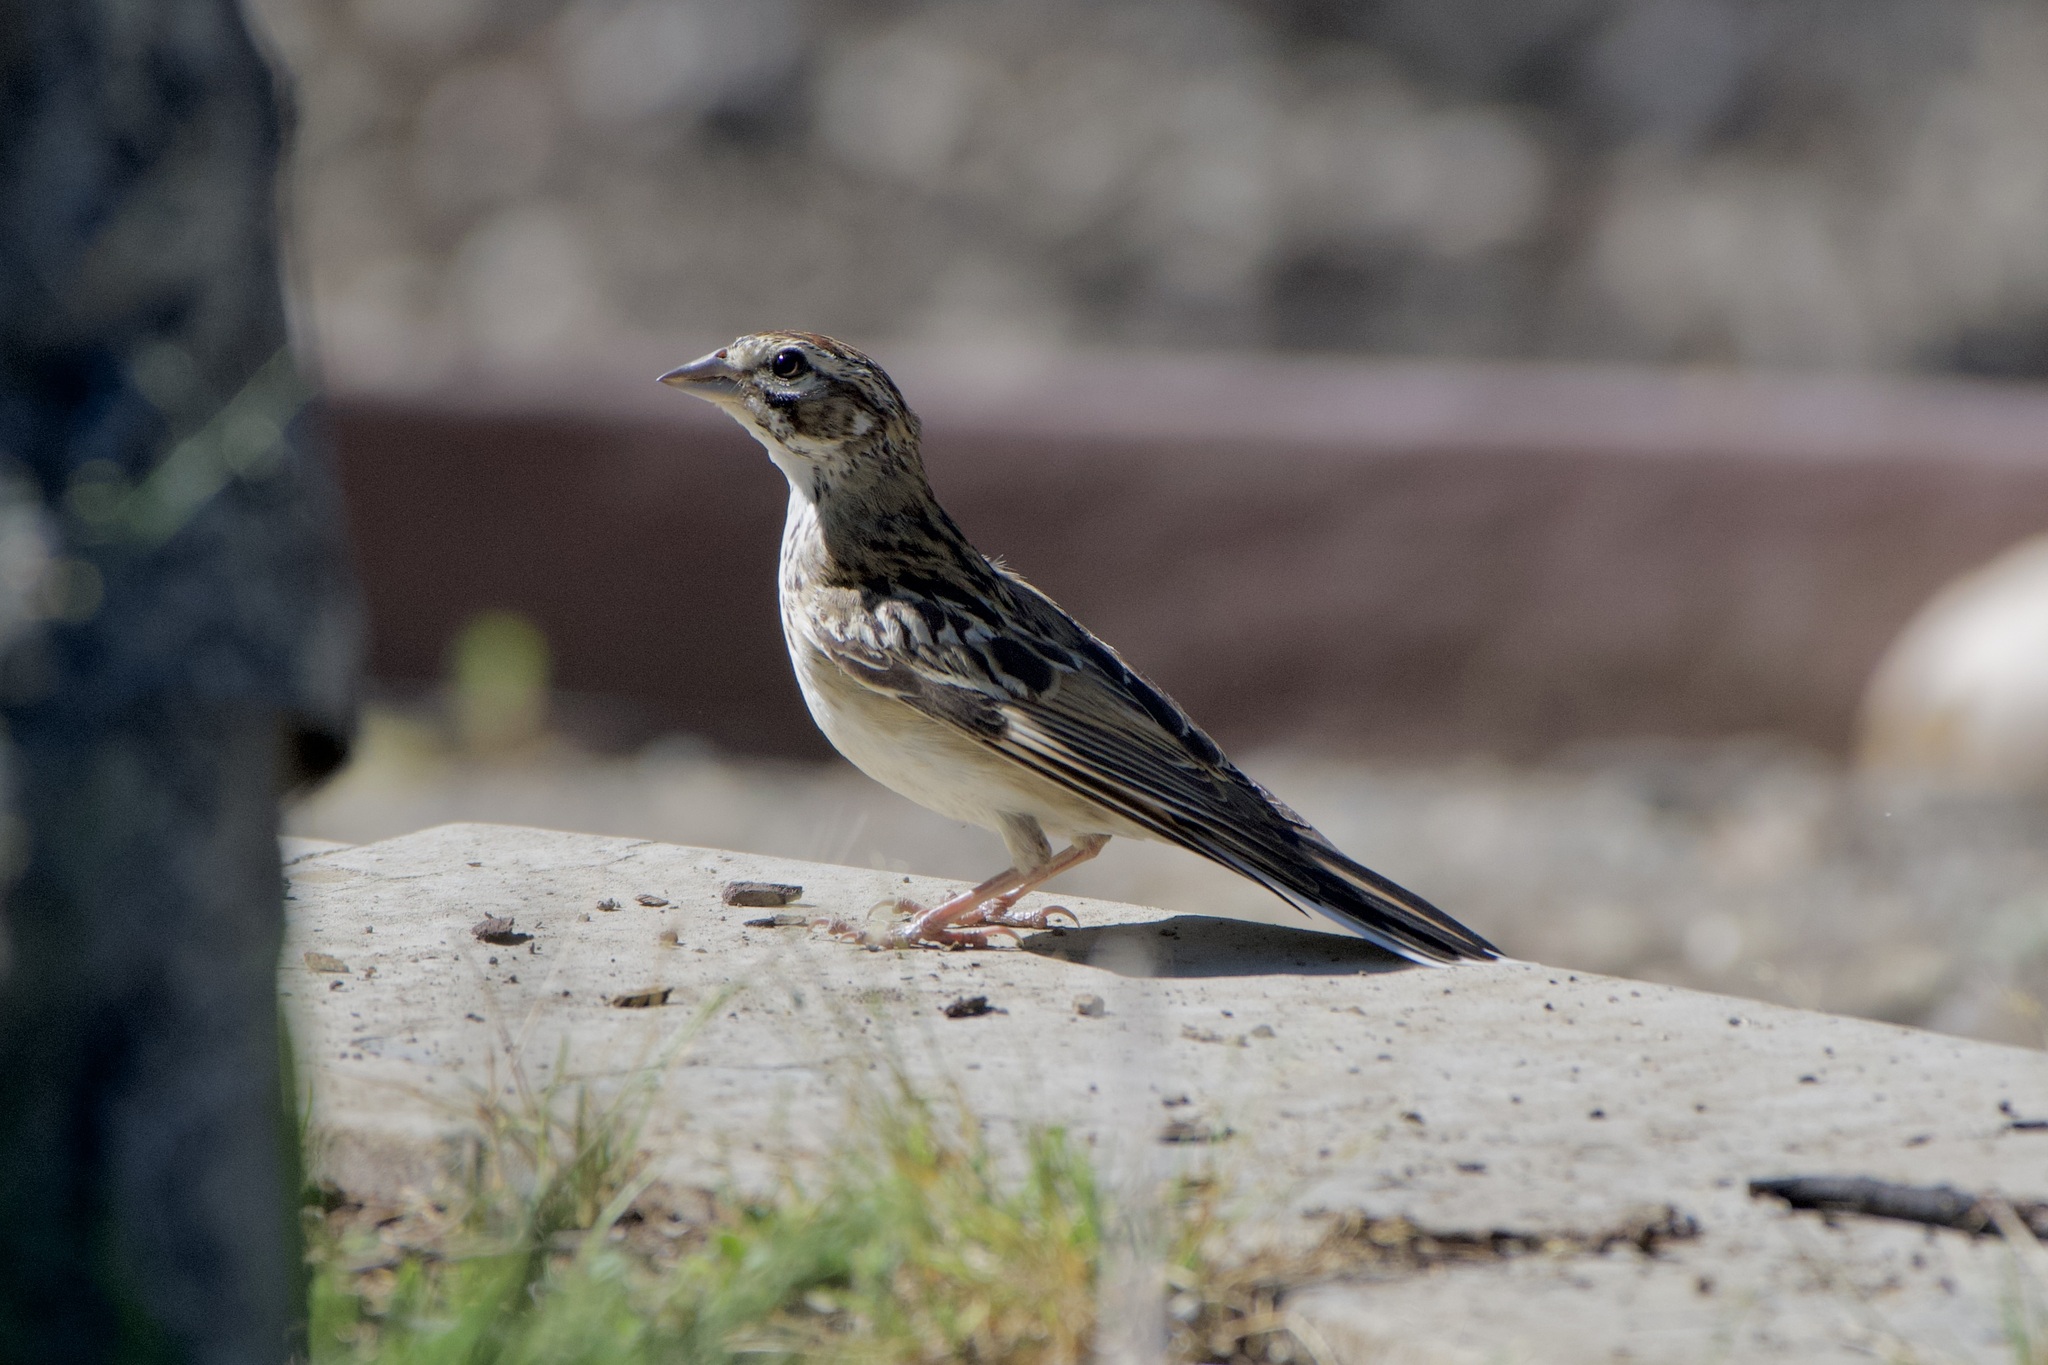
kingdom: Animalia
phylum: Chordata
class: Aves
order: Passeriformes
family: Passerellidae
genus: Chondestes
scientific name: Chondestes grammacus
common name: Lark sparrow
